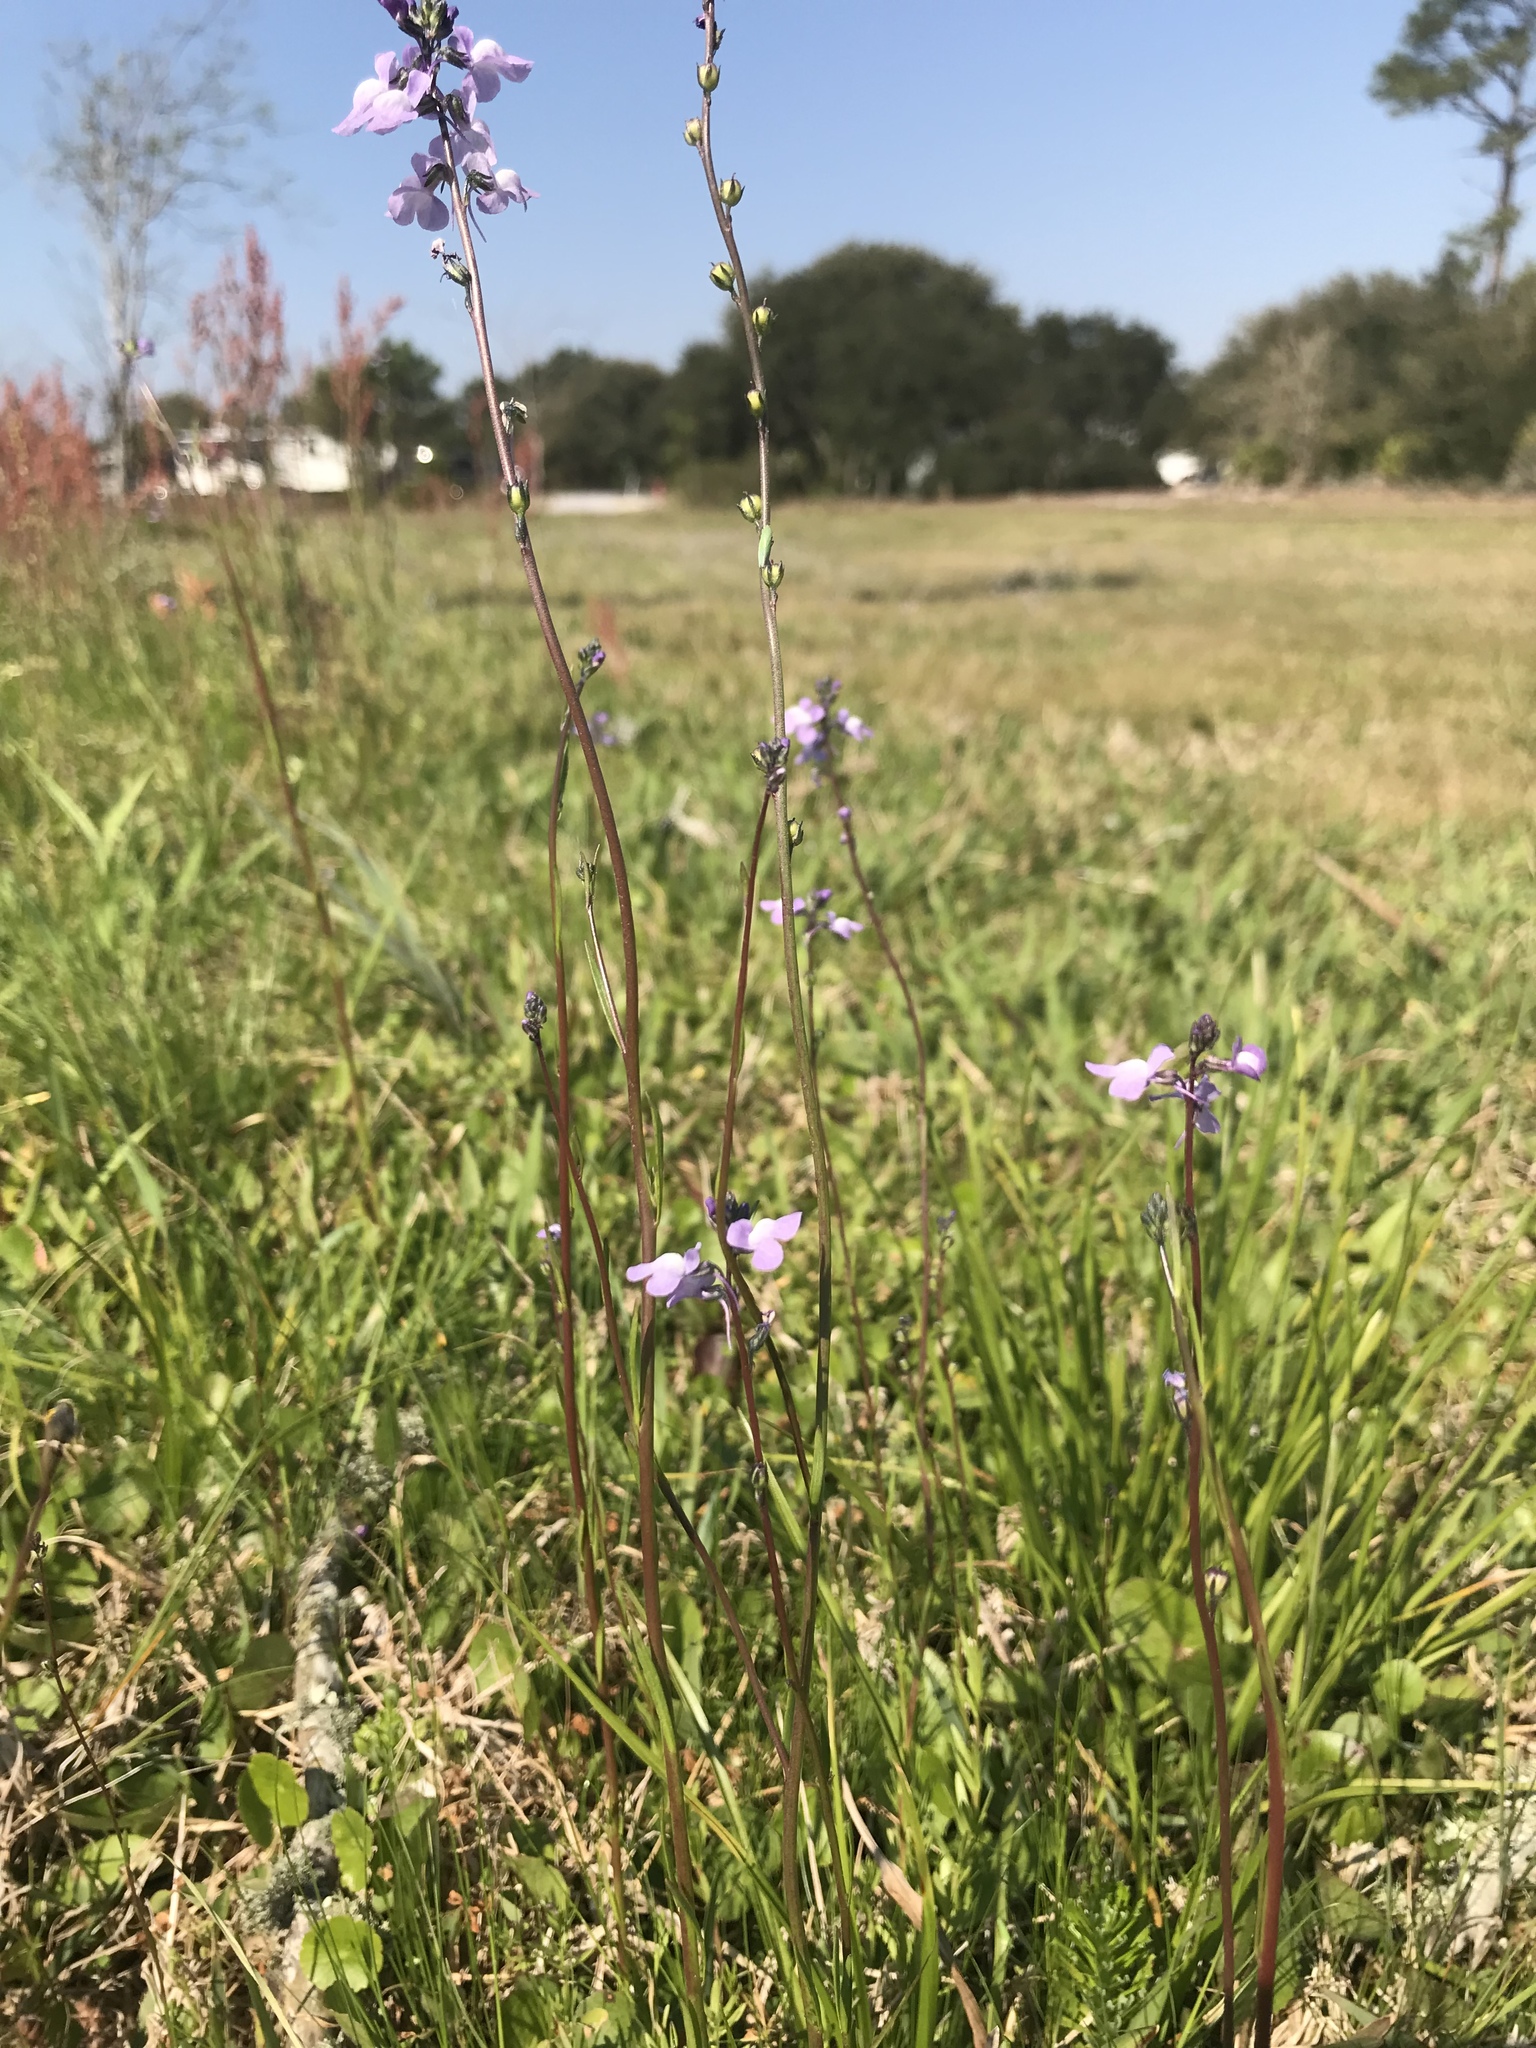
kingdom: Plantae
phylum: Tracheophyta
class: Magnoliopsida
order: Lamiales
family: Plantaginaceae
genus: Nuttallanthus
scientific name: Nuttallanthus canadensis
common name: Blue toadflax
